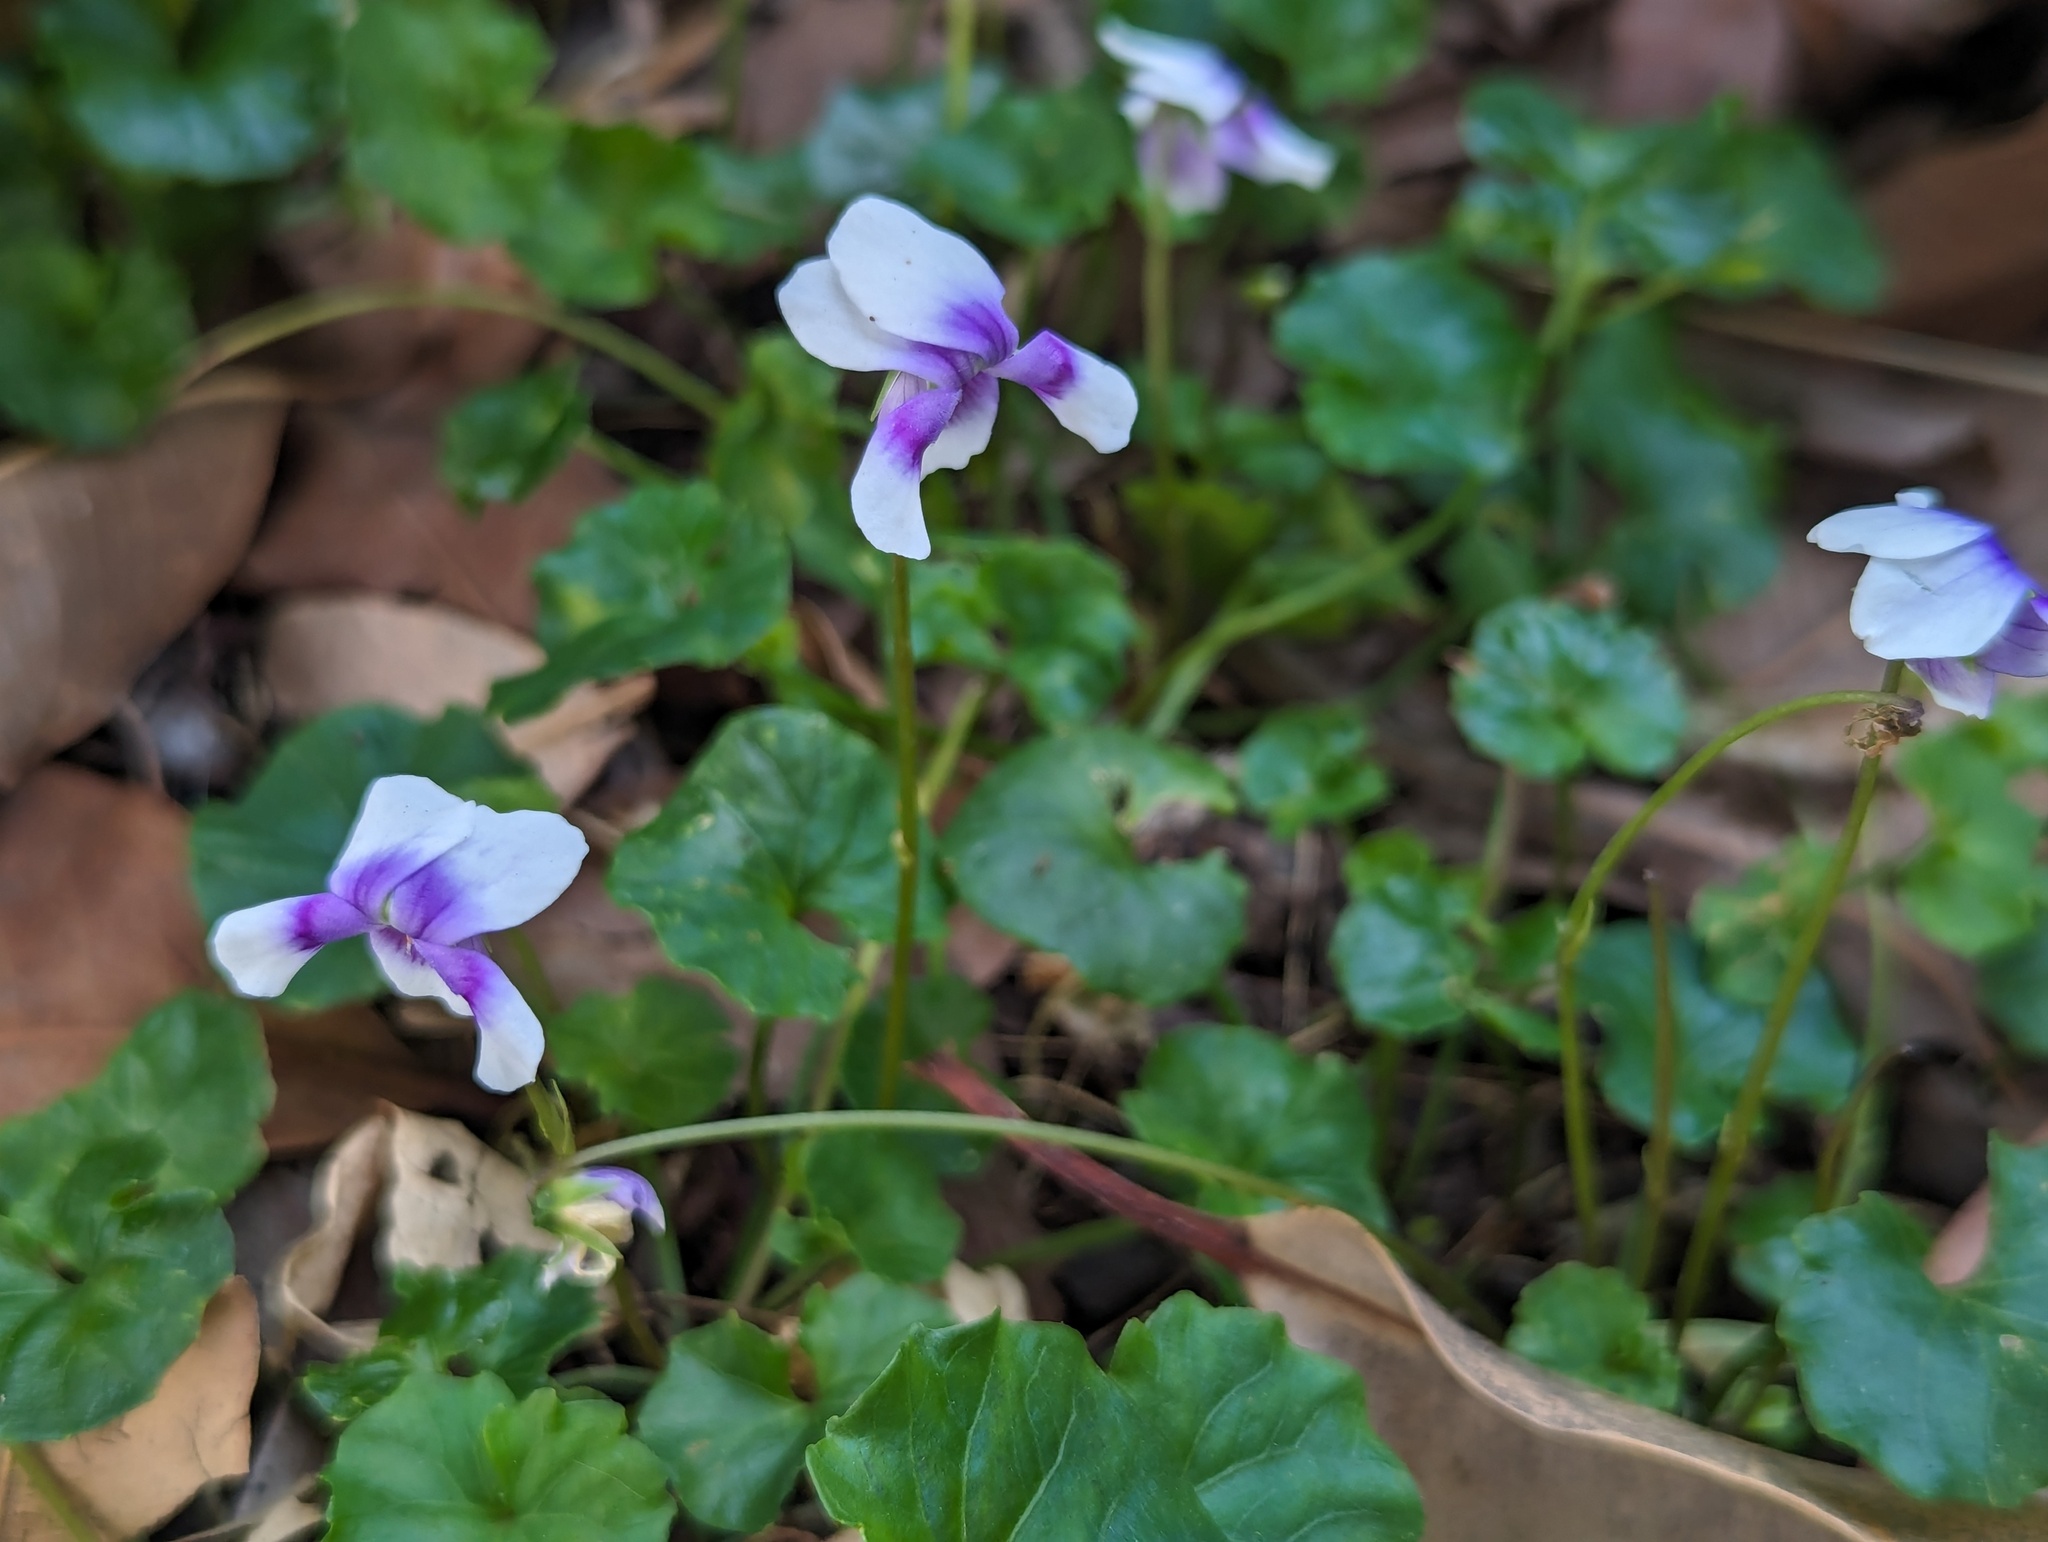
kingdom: Plantae
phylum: Tracheophyta
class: Magnoliopsida
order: Malpighiales
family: Violaceae
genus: Viola
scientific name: Viola banksii
